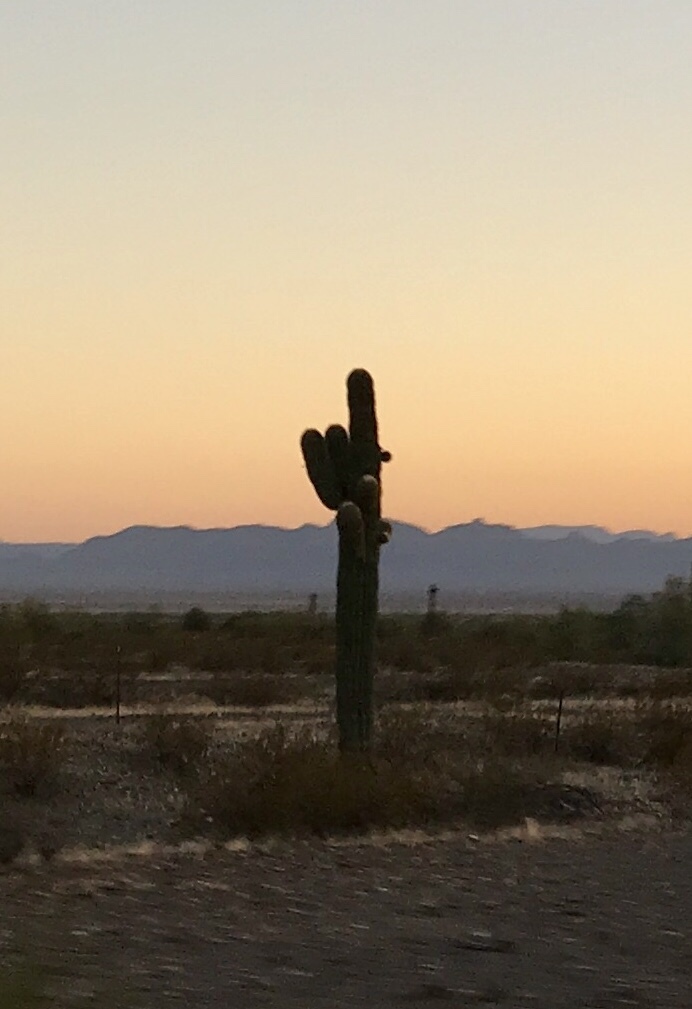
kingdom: Plantae
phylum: Tracheophyta
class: Magnoliopsida
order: Caryophyllales
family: Cactaceae
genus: Carnegiea
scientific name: Carnegiea gigantea
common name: Saguaro
